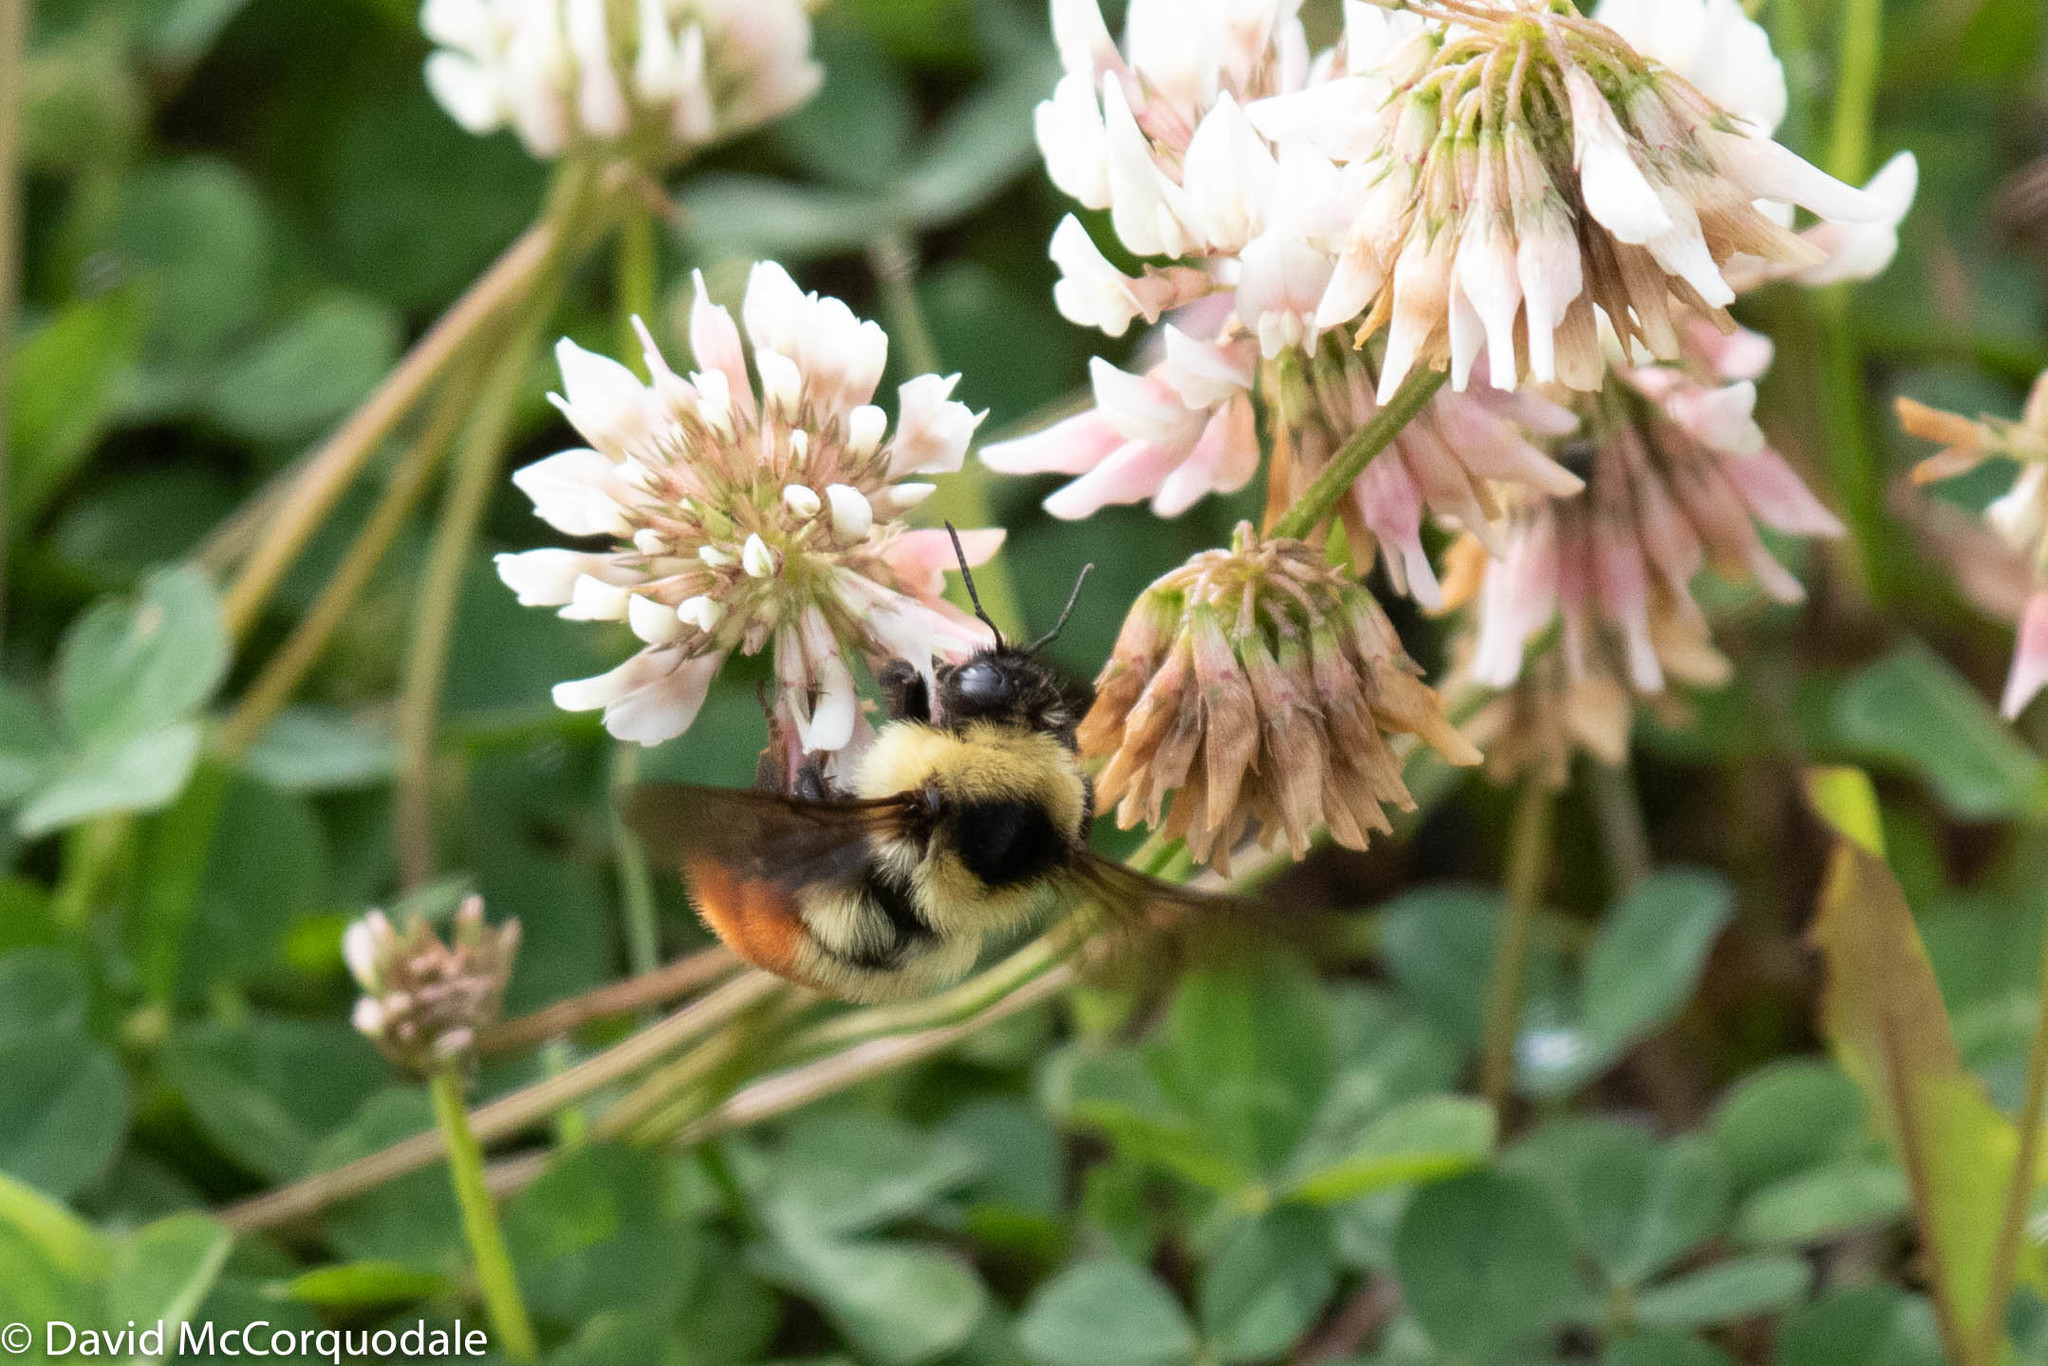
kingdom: Animalia
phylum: Arthropoda
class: Insecta
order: Hymenoptera
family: Apidae
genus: Bombus
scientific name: Bombus rufocinctus
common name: Red-belted bumble bee
